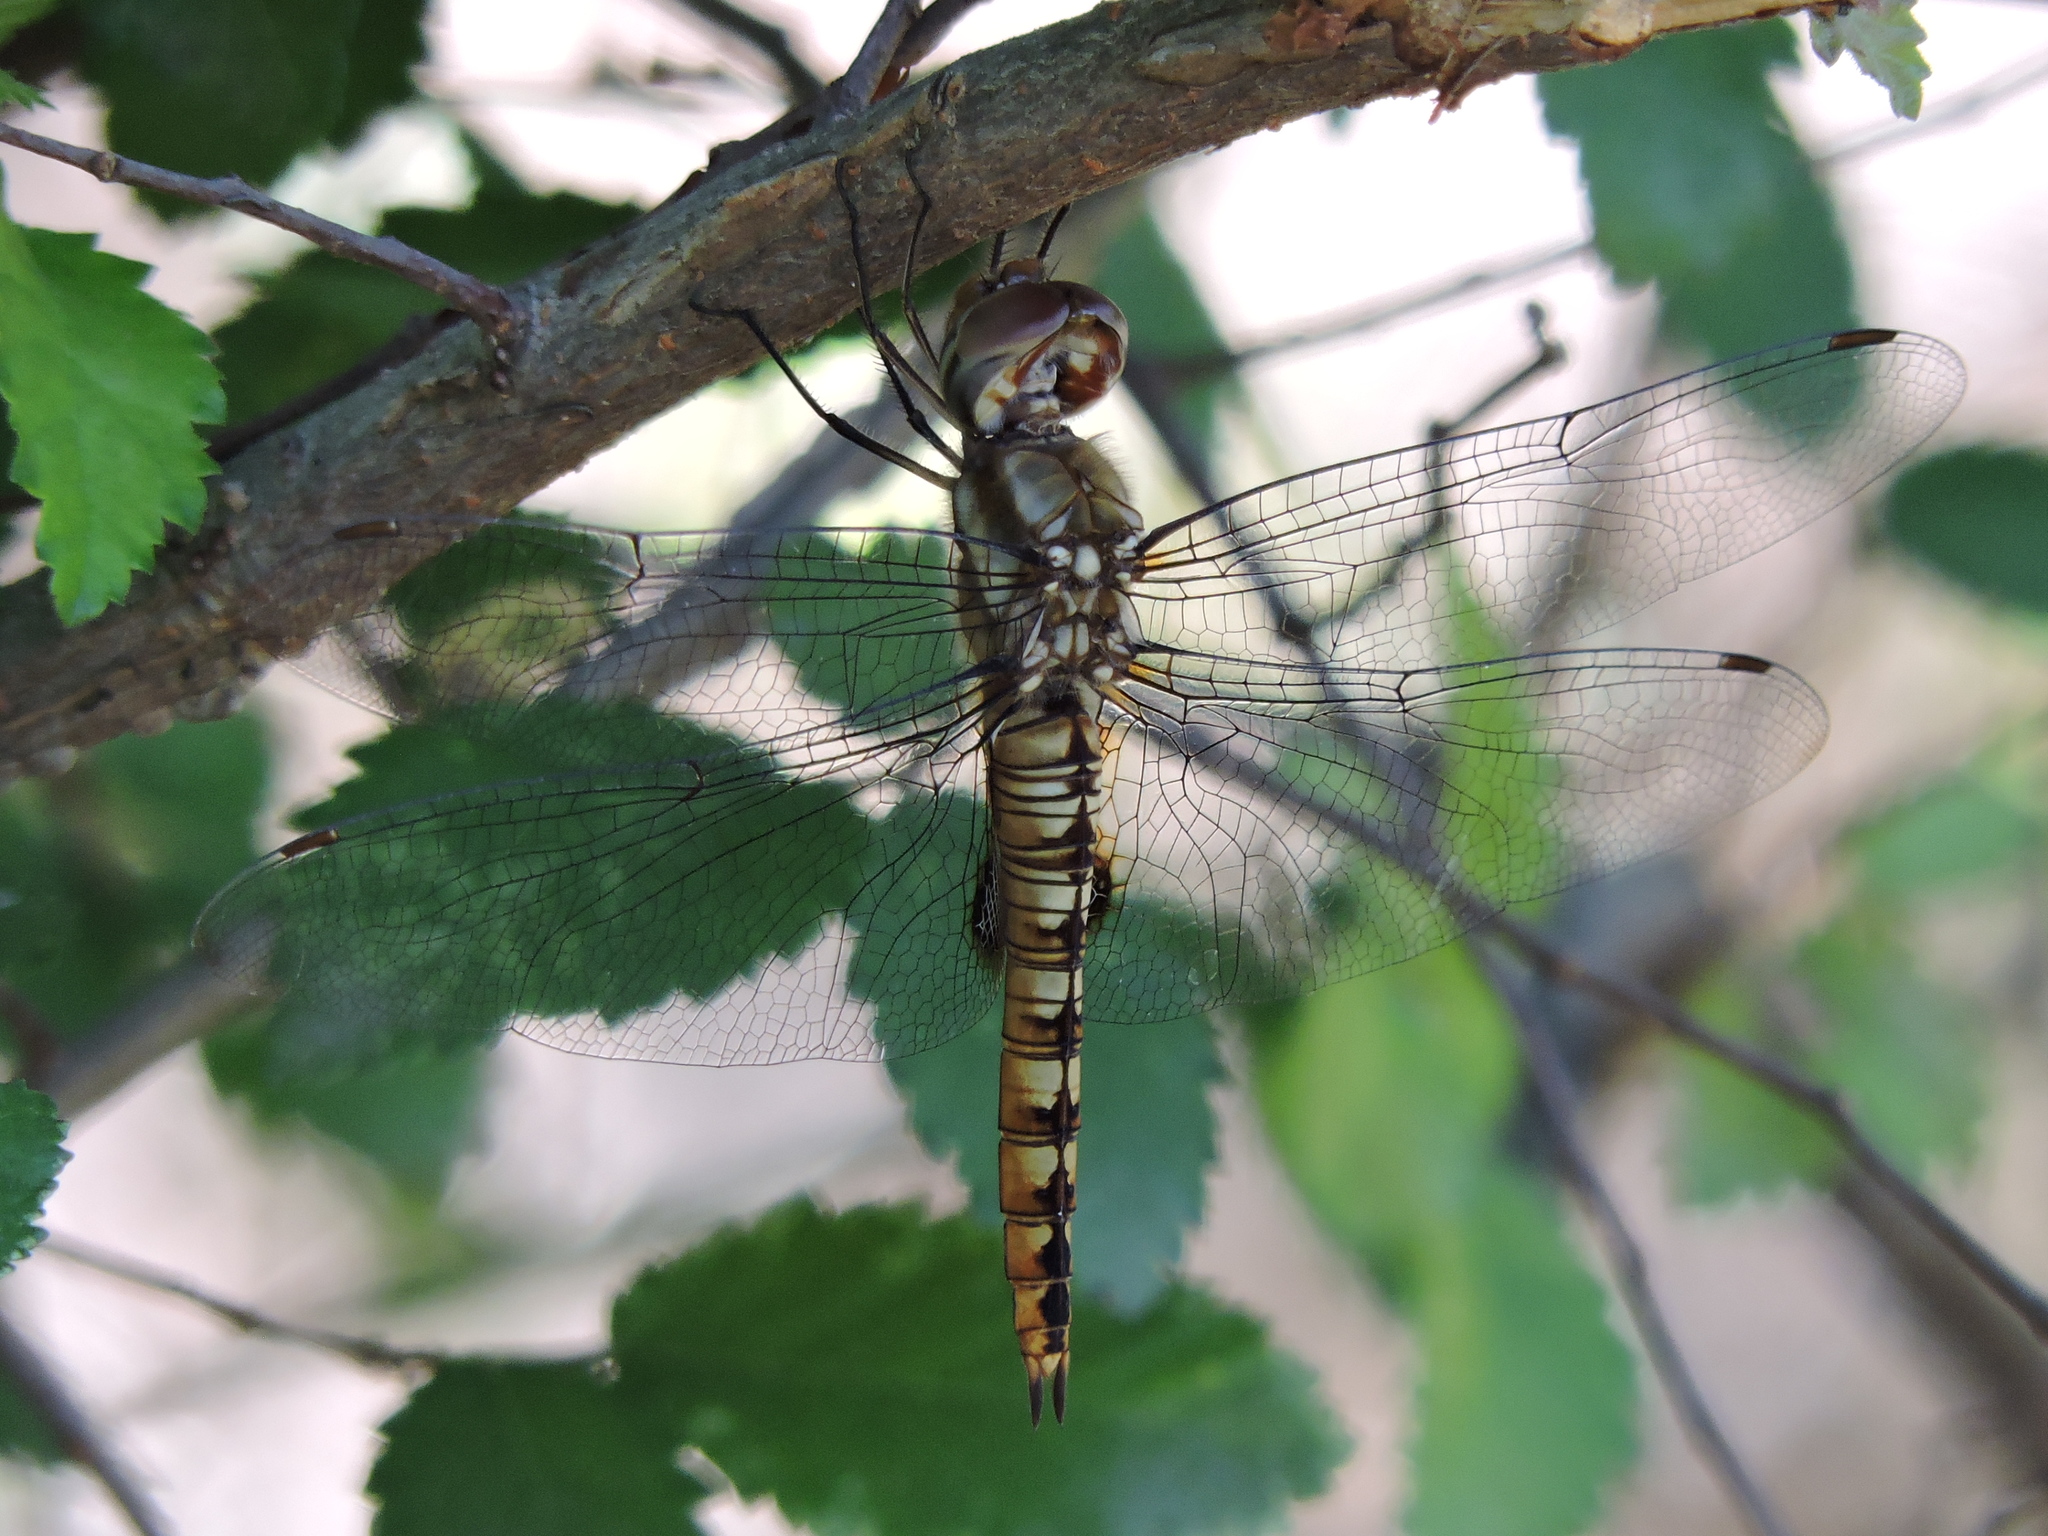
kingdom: Animalia
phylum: Arthropoda
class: Insecta
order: Odonata
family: Libellulidae
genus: Pantala
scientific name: Pantala hymenaea
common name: Spot-winged glider
